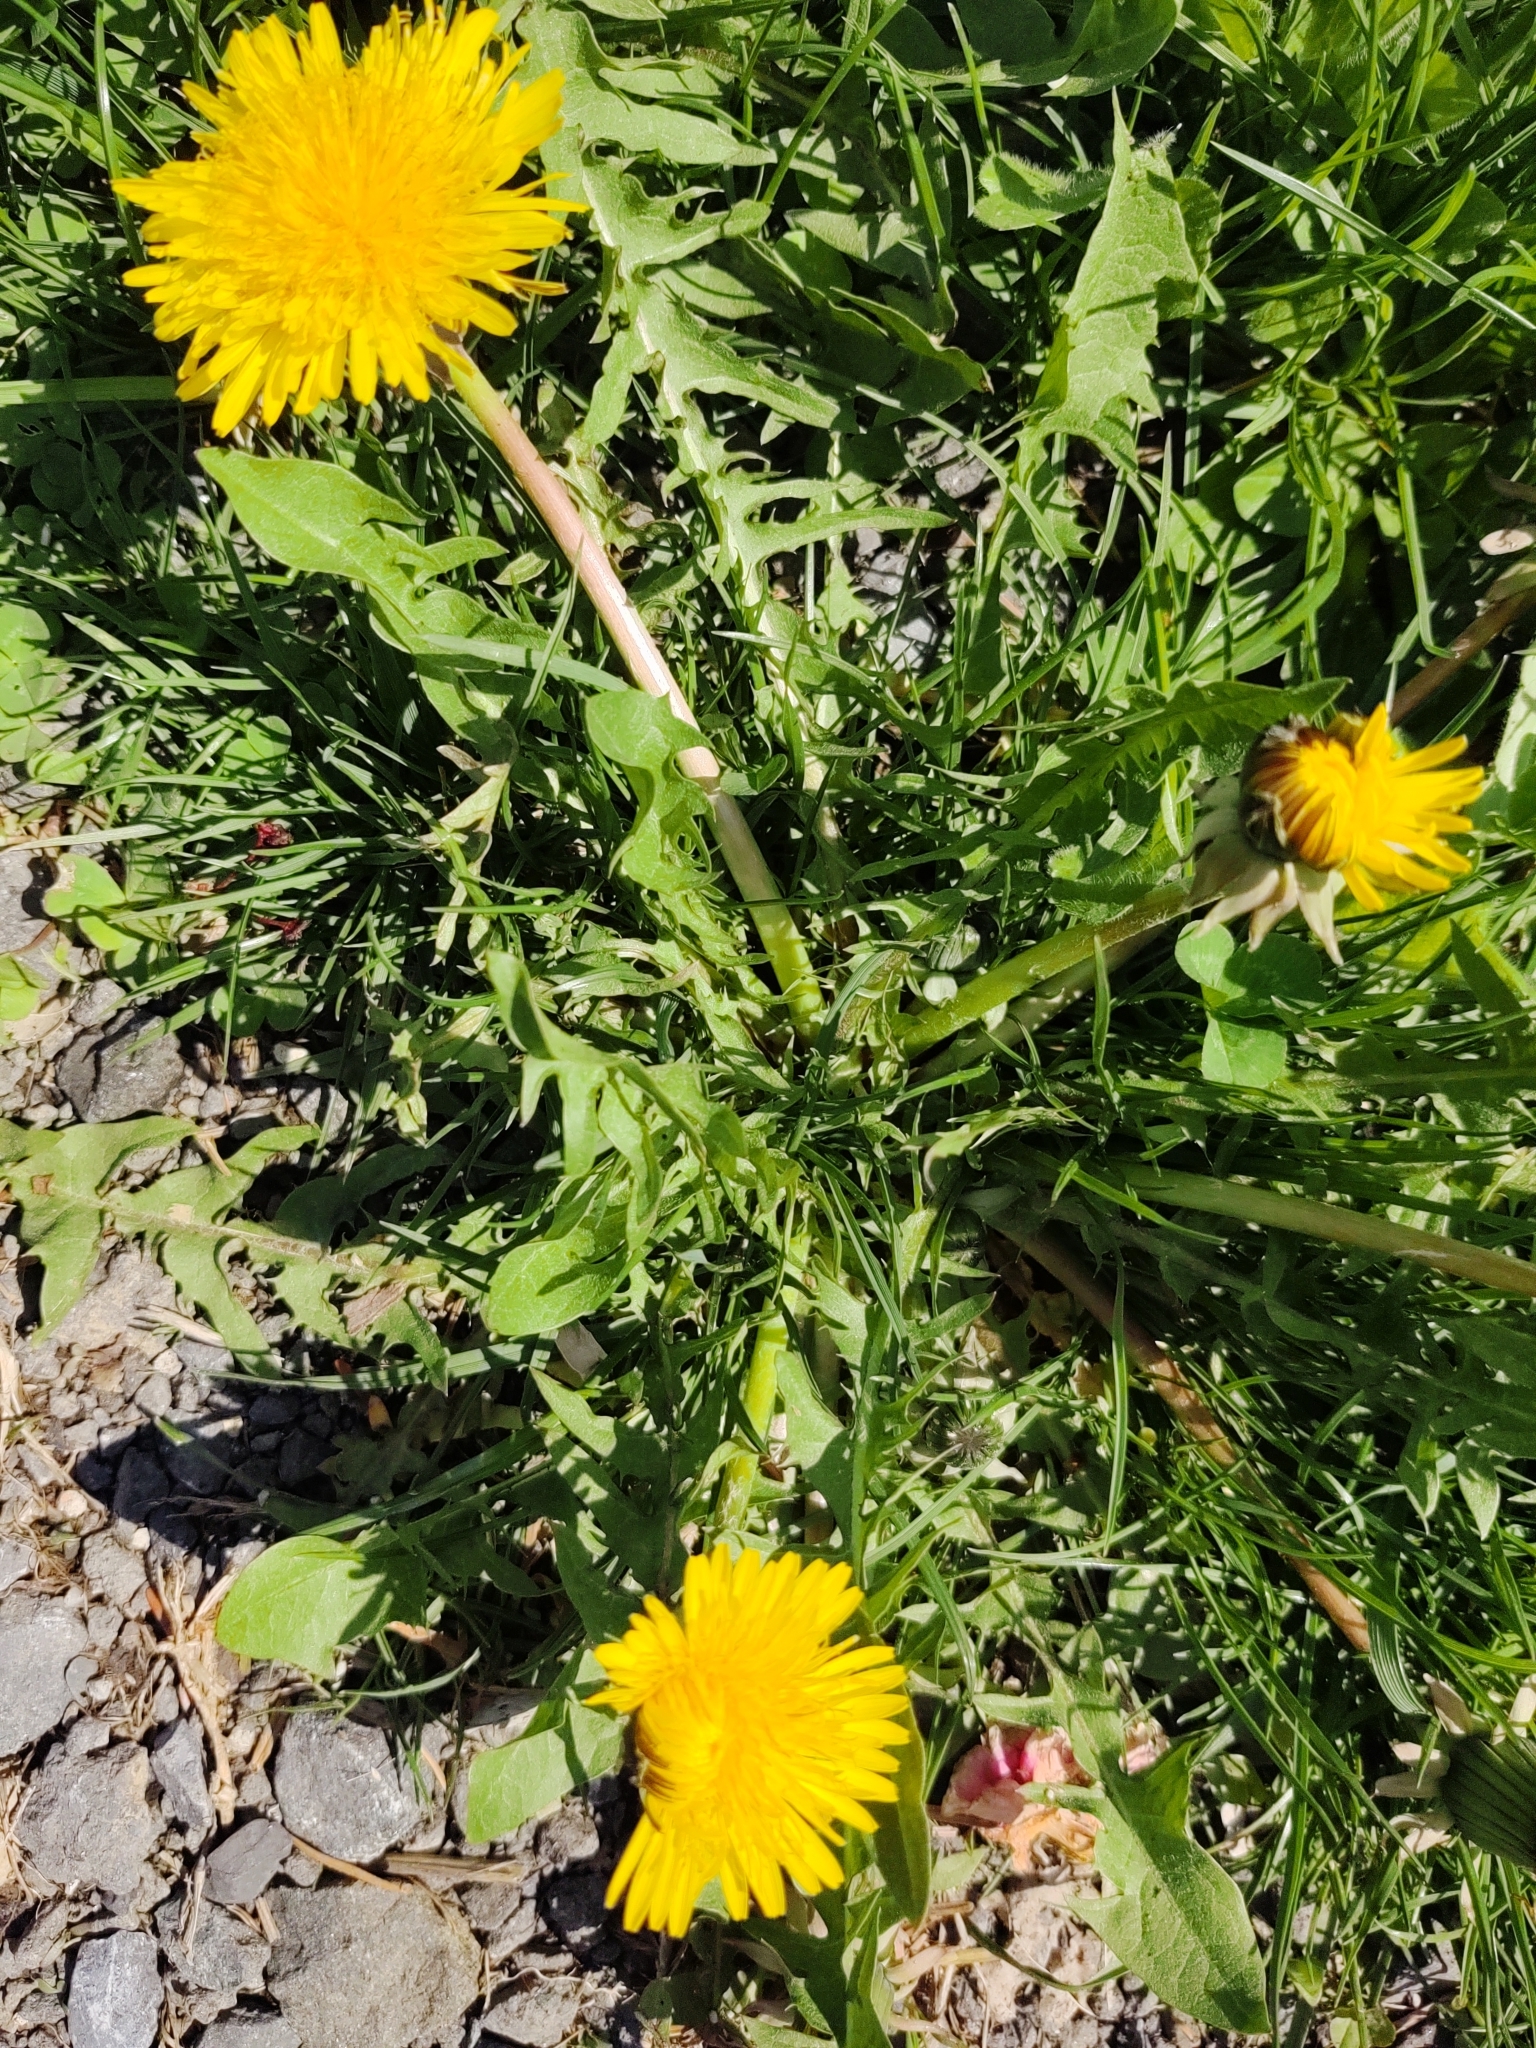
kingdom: Plantae
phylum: Tracheophyta
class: Magnoliopsida
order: Asterales
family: Asteraceae
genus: Taraxacum
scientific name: Taraxacum officinale
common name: Common dandelion
